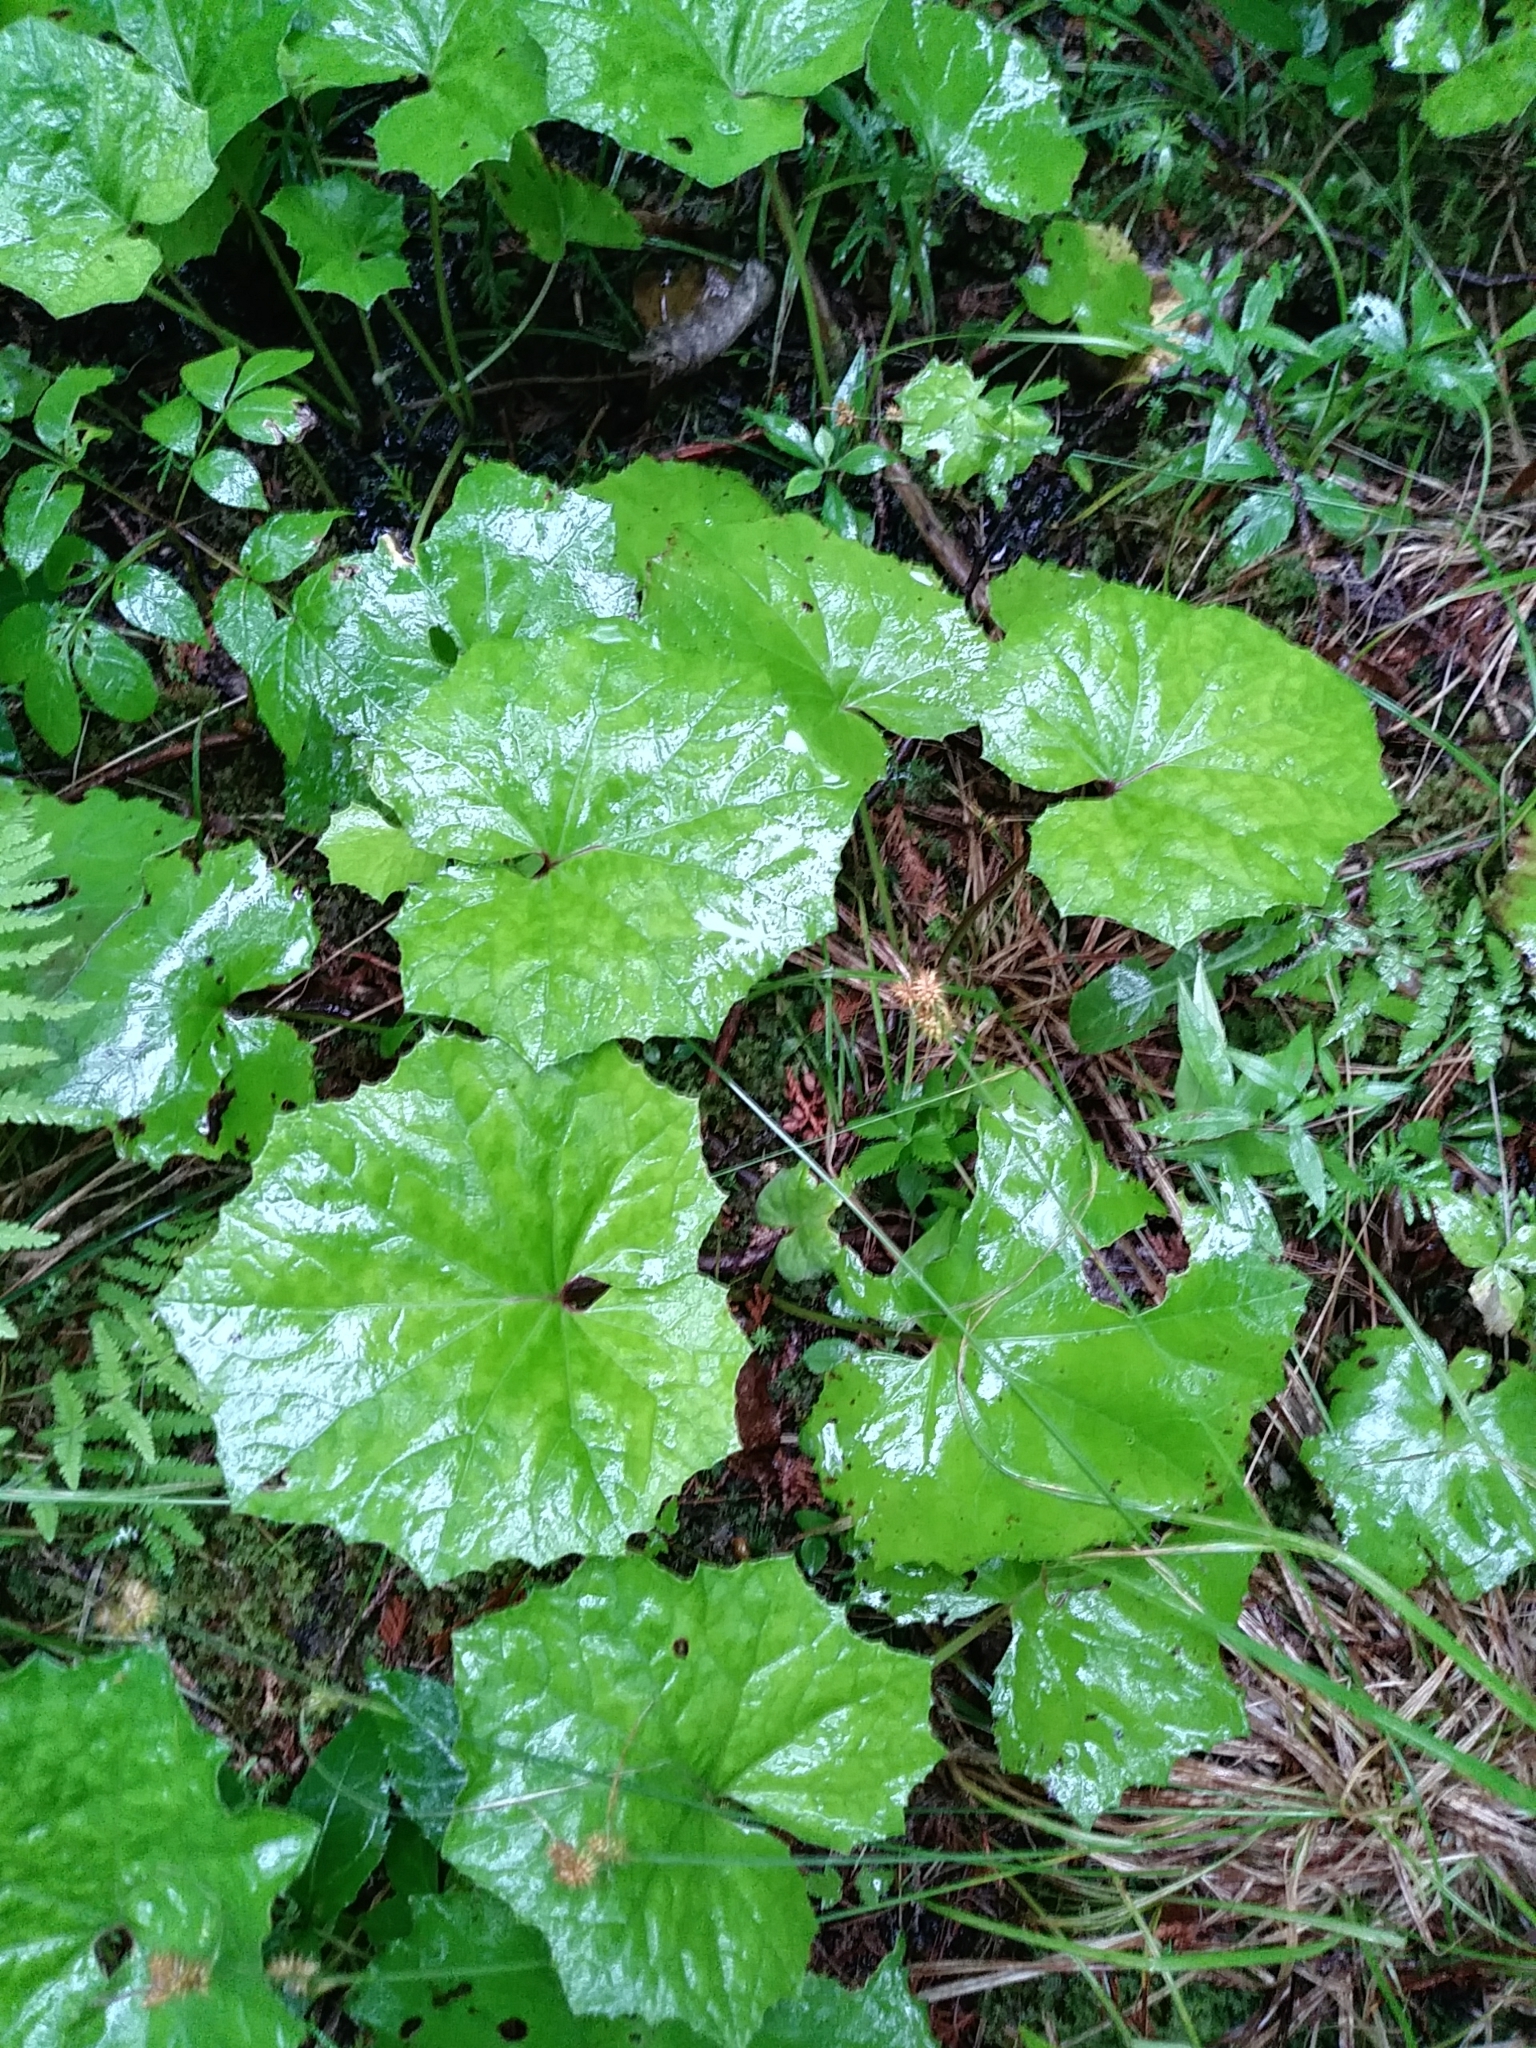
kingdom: Plantae
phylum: Tracheophyta
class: Magnoliopsida
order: Asterales
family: Asteraceae
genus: Tussilago
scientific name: Tussilago farfara
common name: Coltsfoot
